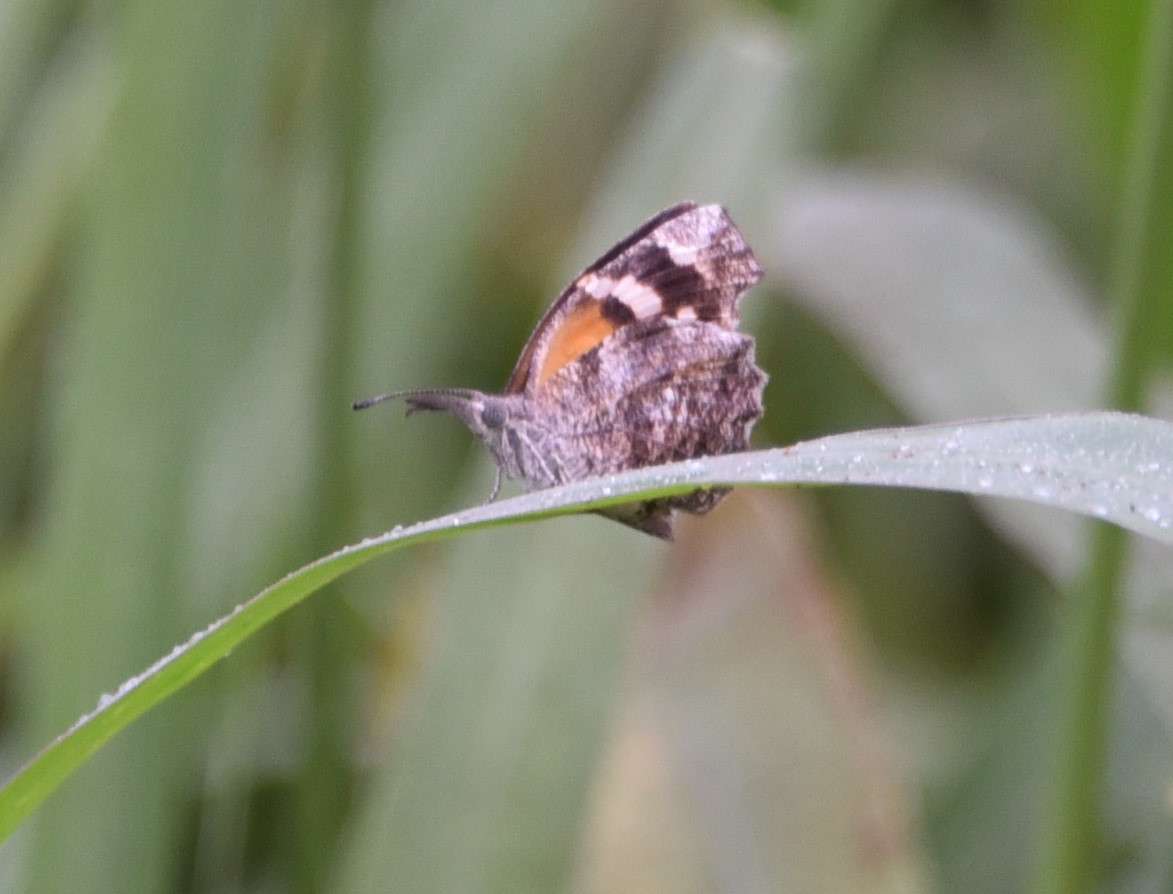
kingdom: Animalia
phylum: Arthropoda
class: Insecta
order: Lepidoptera
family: Nymphalidae
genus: Libytheana
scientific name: Libytheana carinenta
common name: American snout
